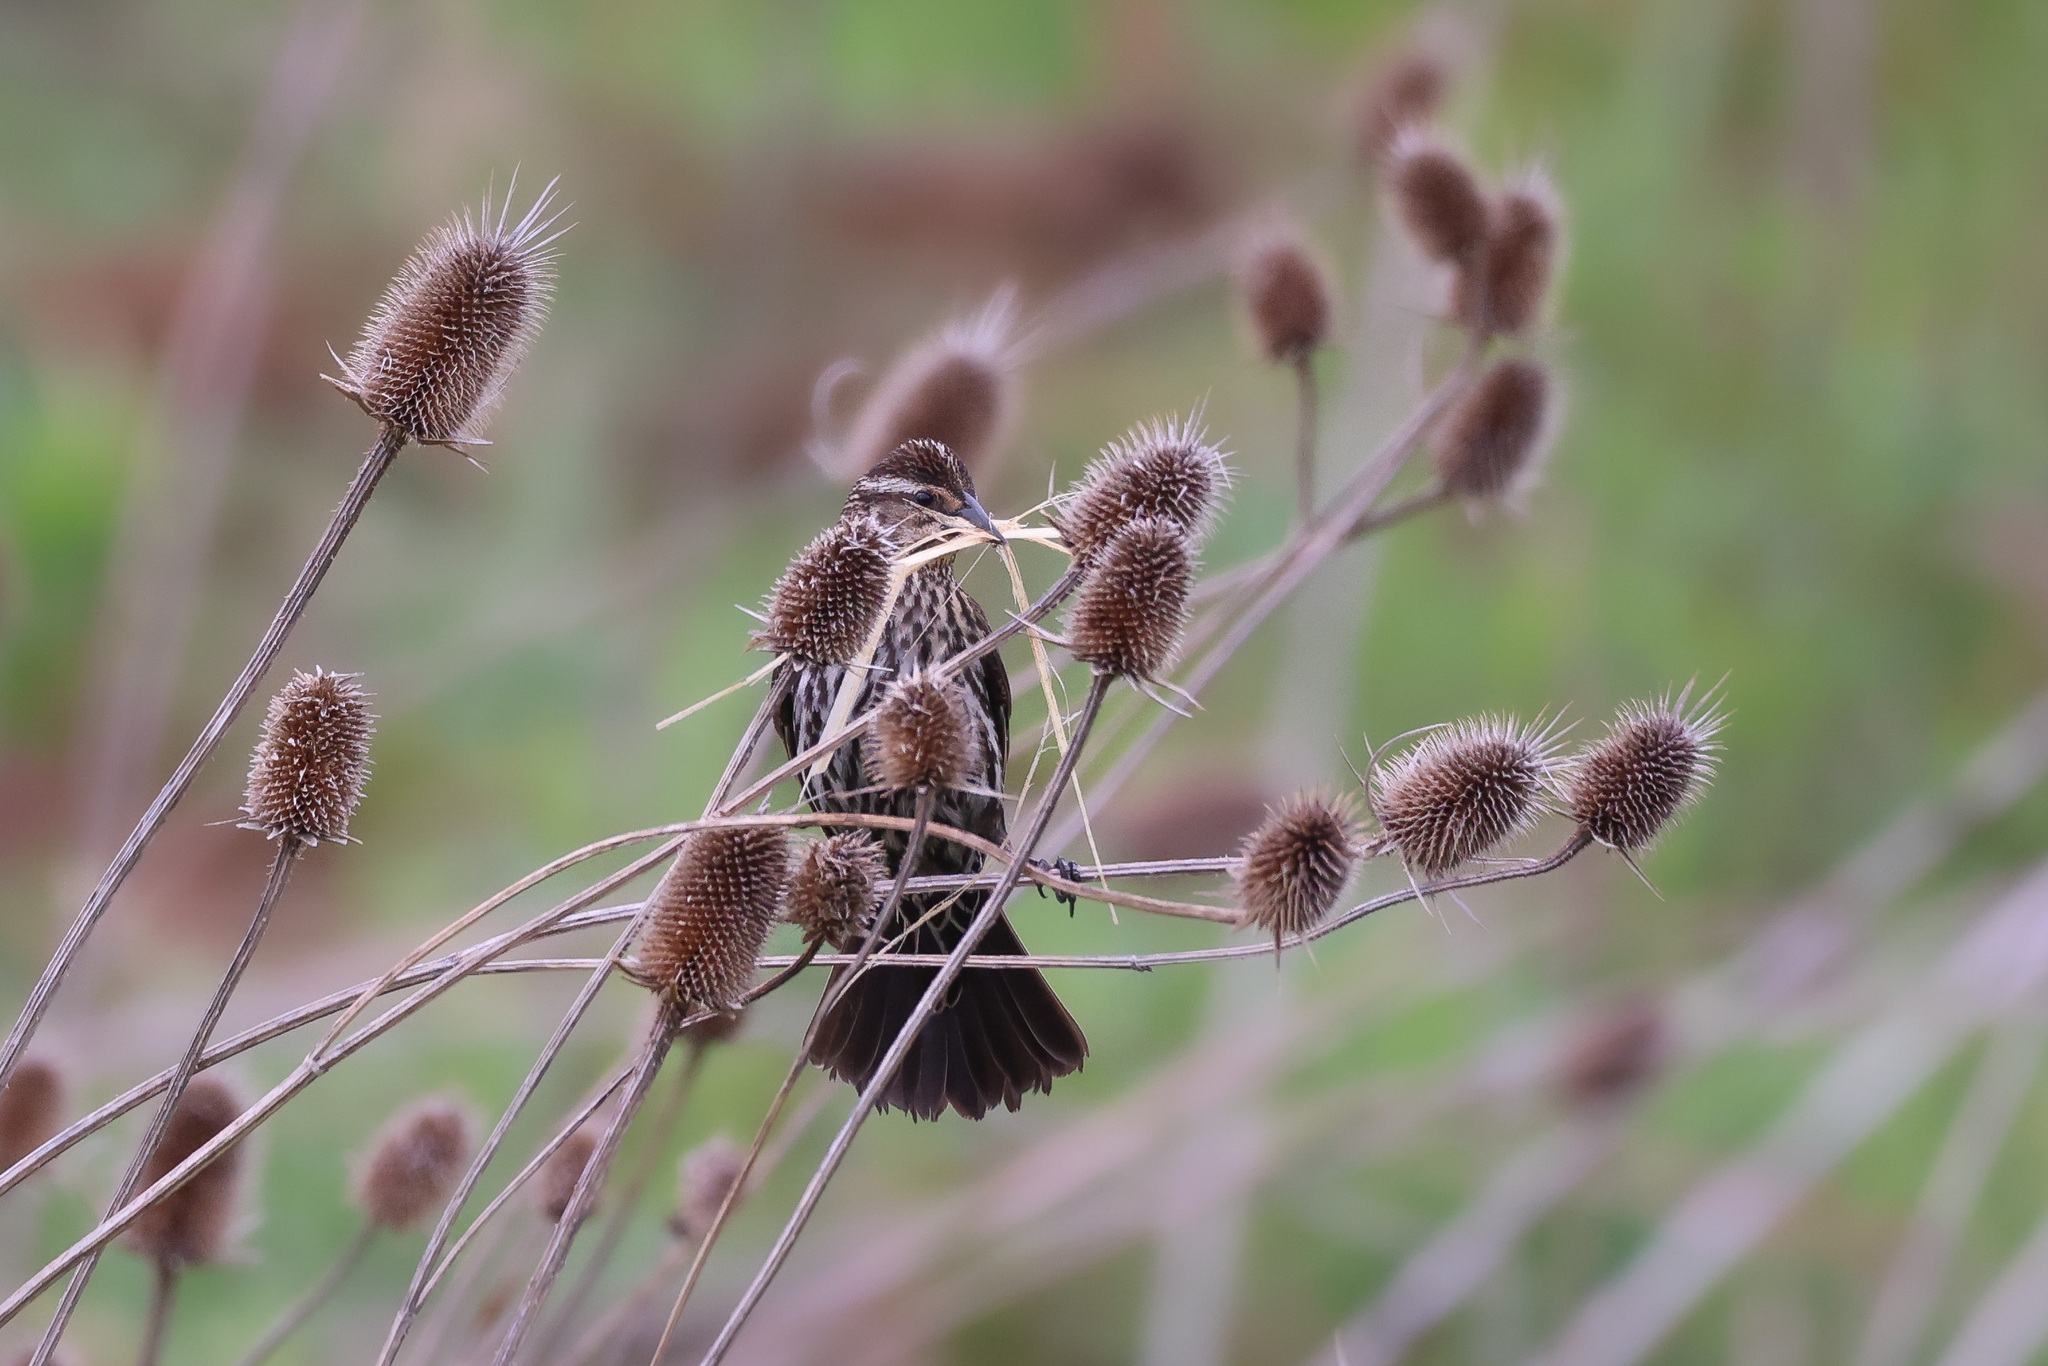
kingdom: Animalia
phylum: Chordata
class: Aves
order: Passeriformes
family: Icteridae
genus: Agelaius
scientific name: Agelaius phoeniceus
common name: Red-winged blackbird
